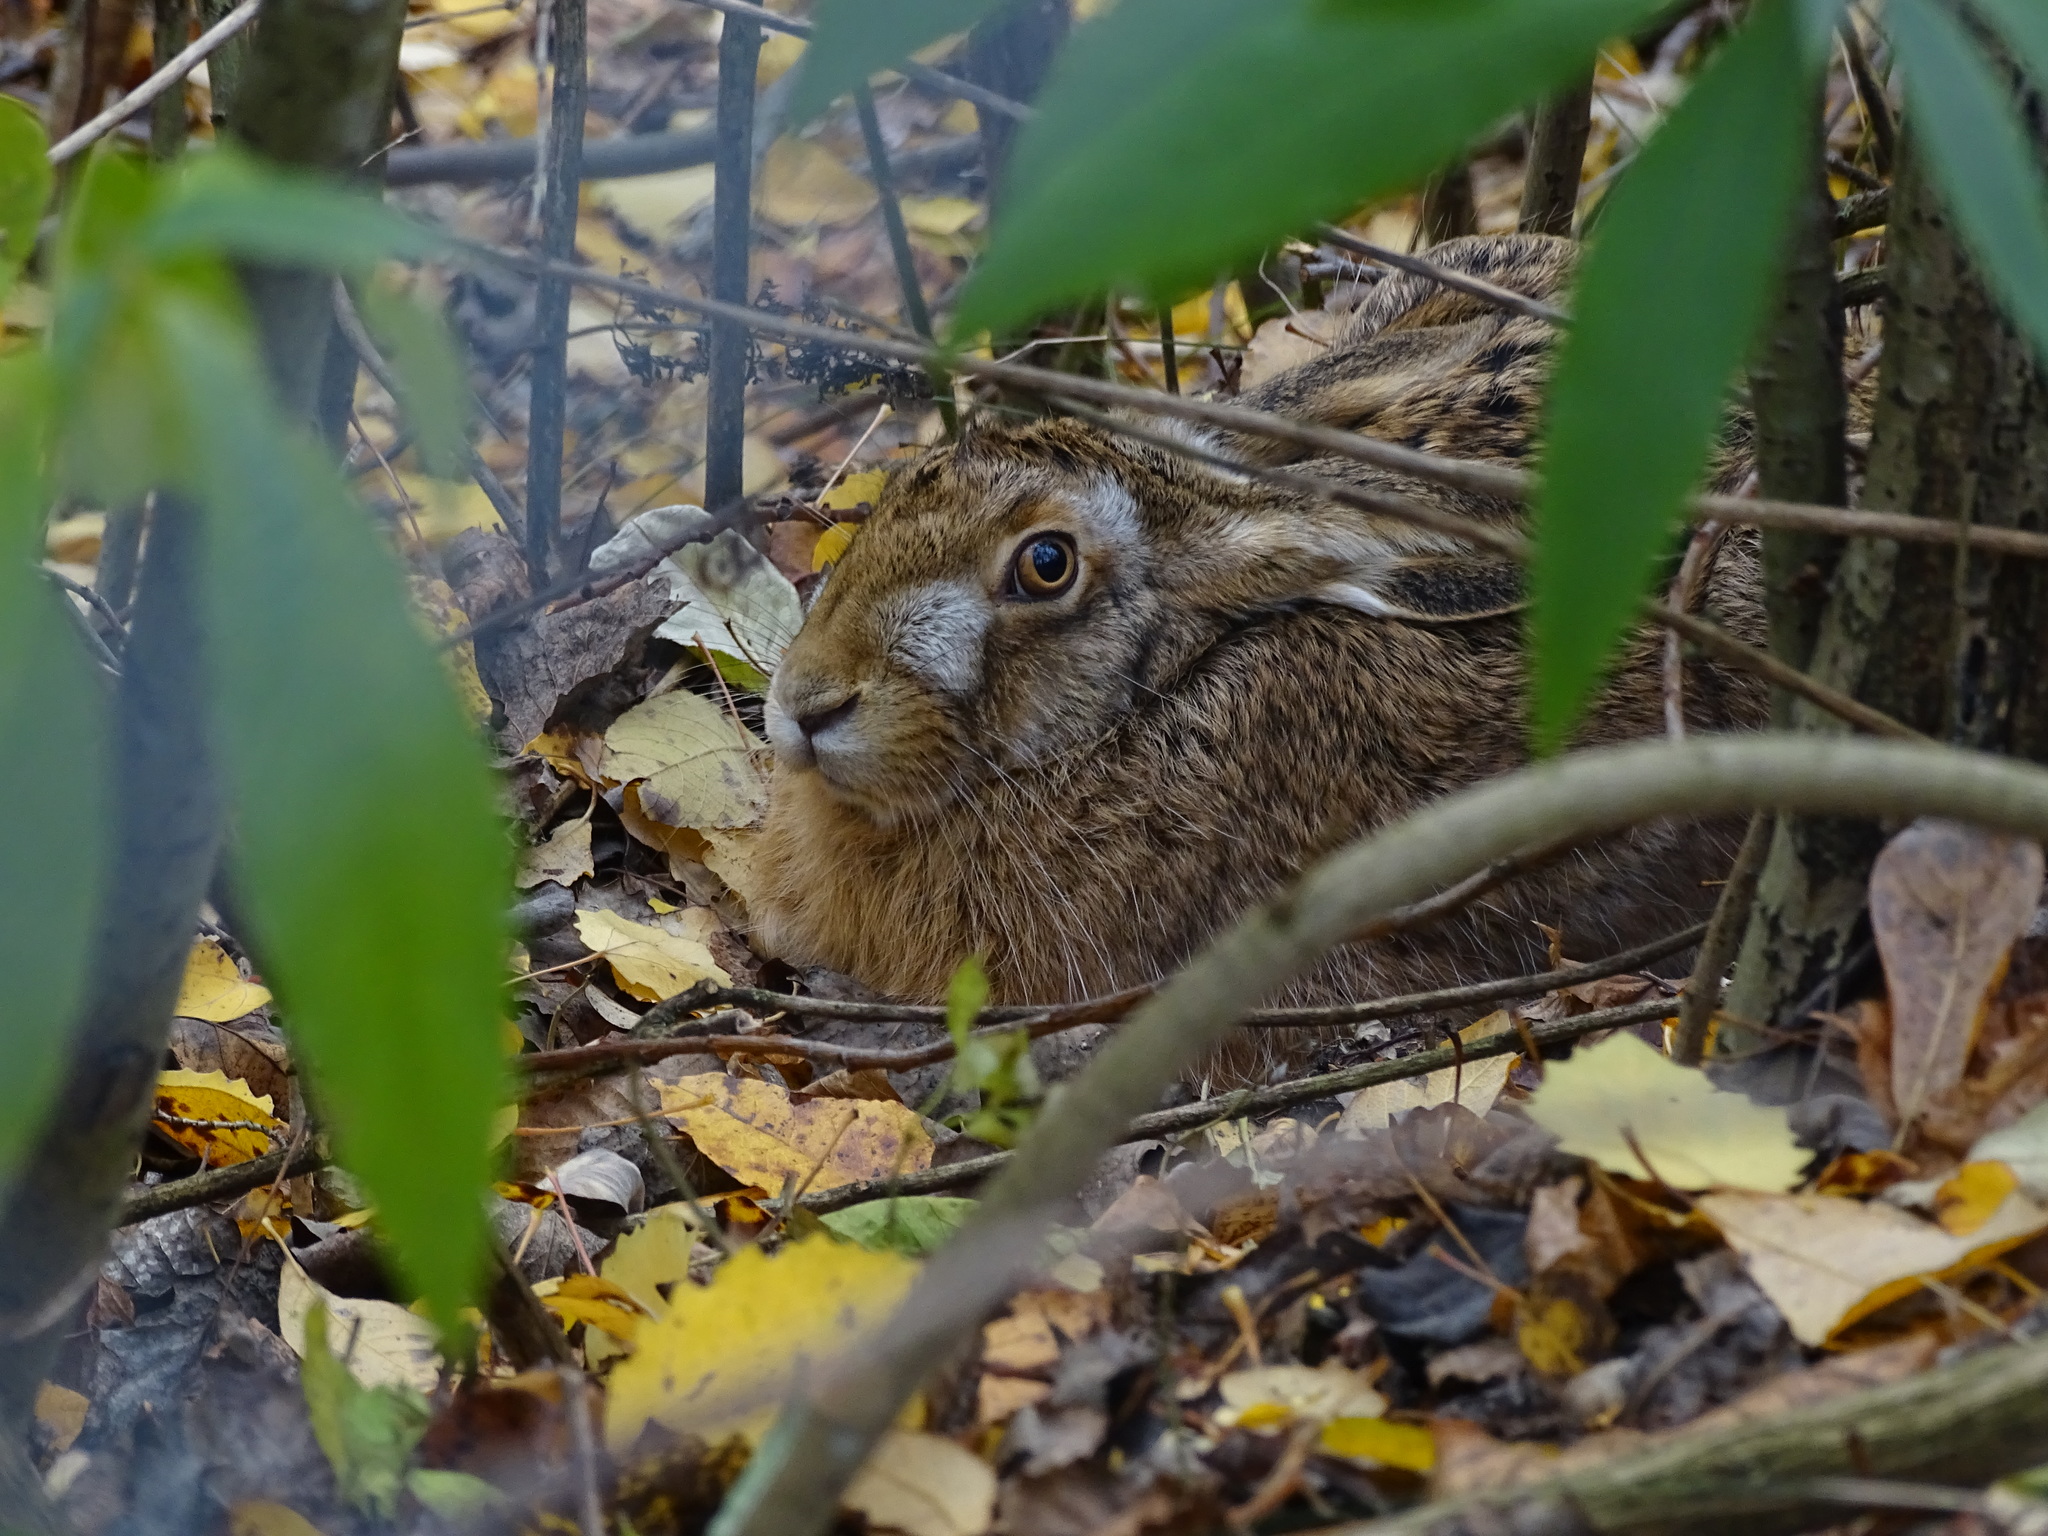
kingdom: Animalia
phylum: Chordata
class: Mammalia
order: Lagomorpha
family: Leporidae
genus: Lepus
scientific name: Lepus europaeus
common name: European hare
